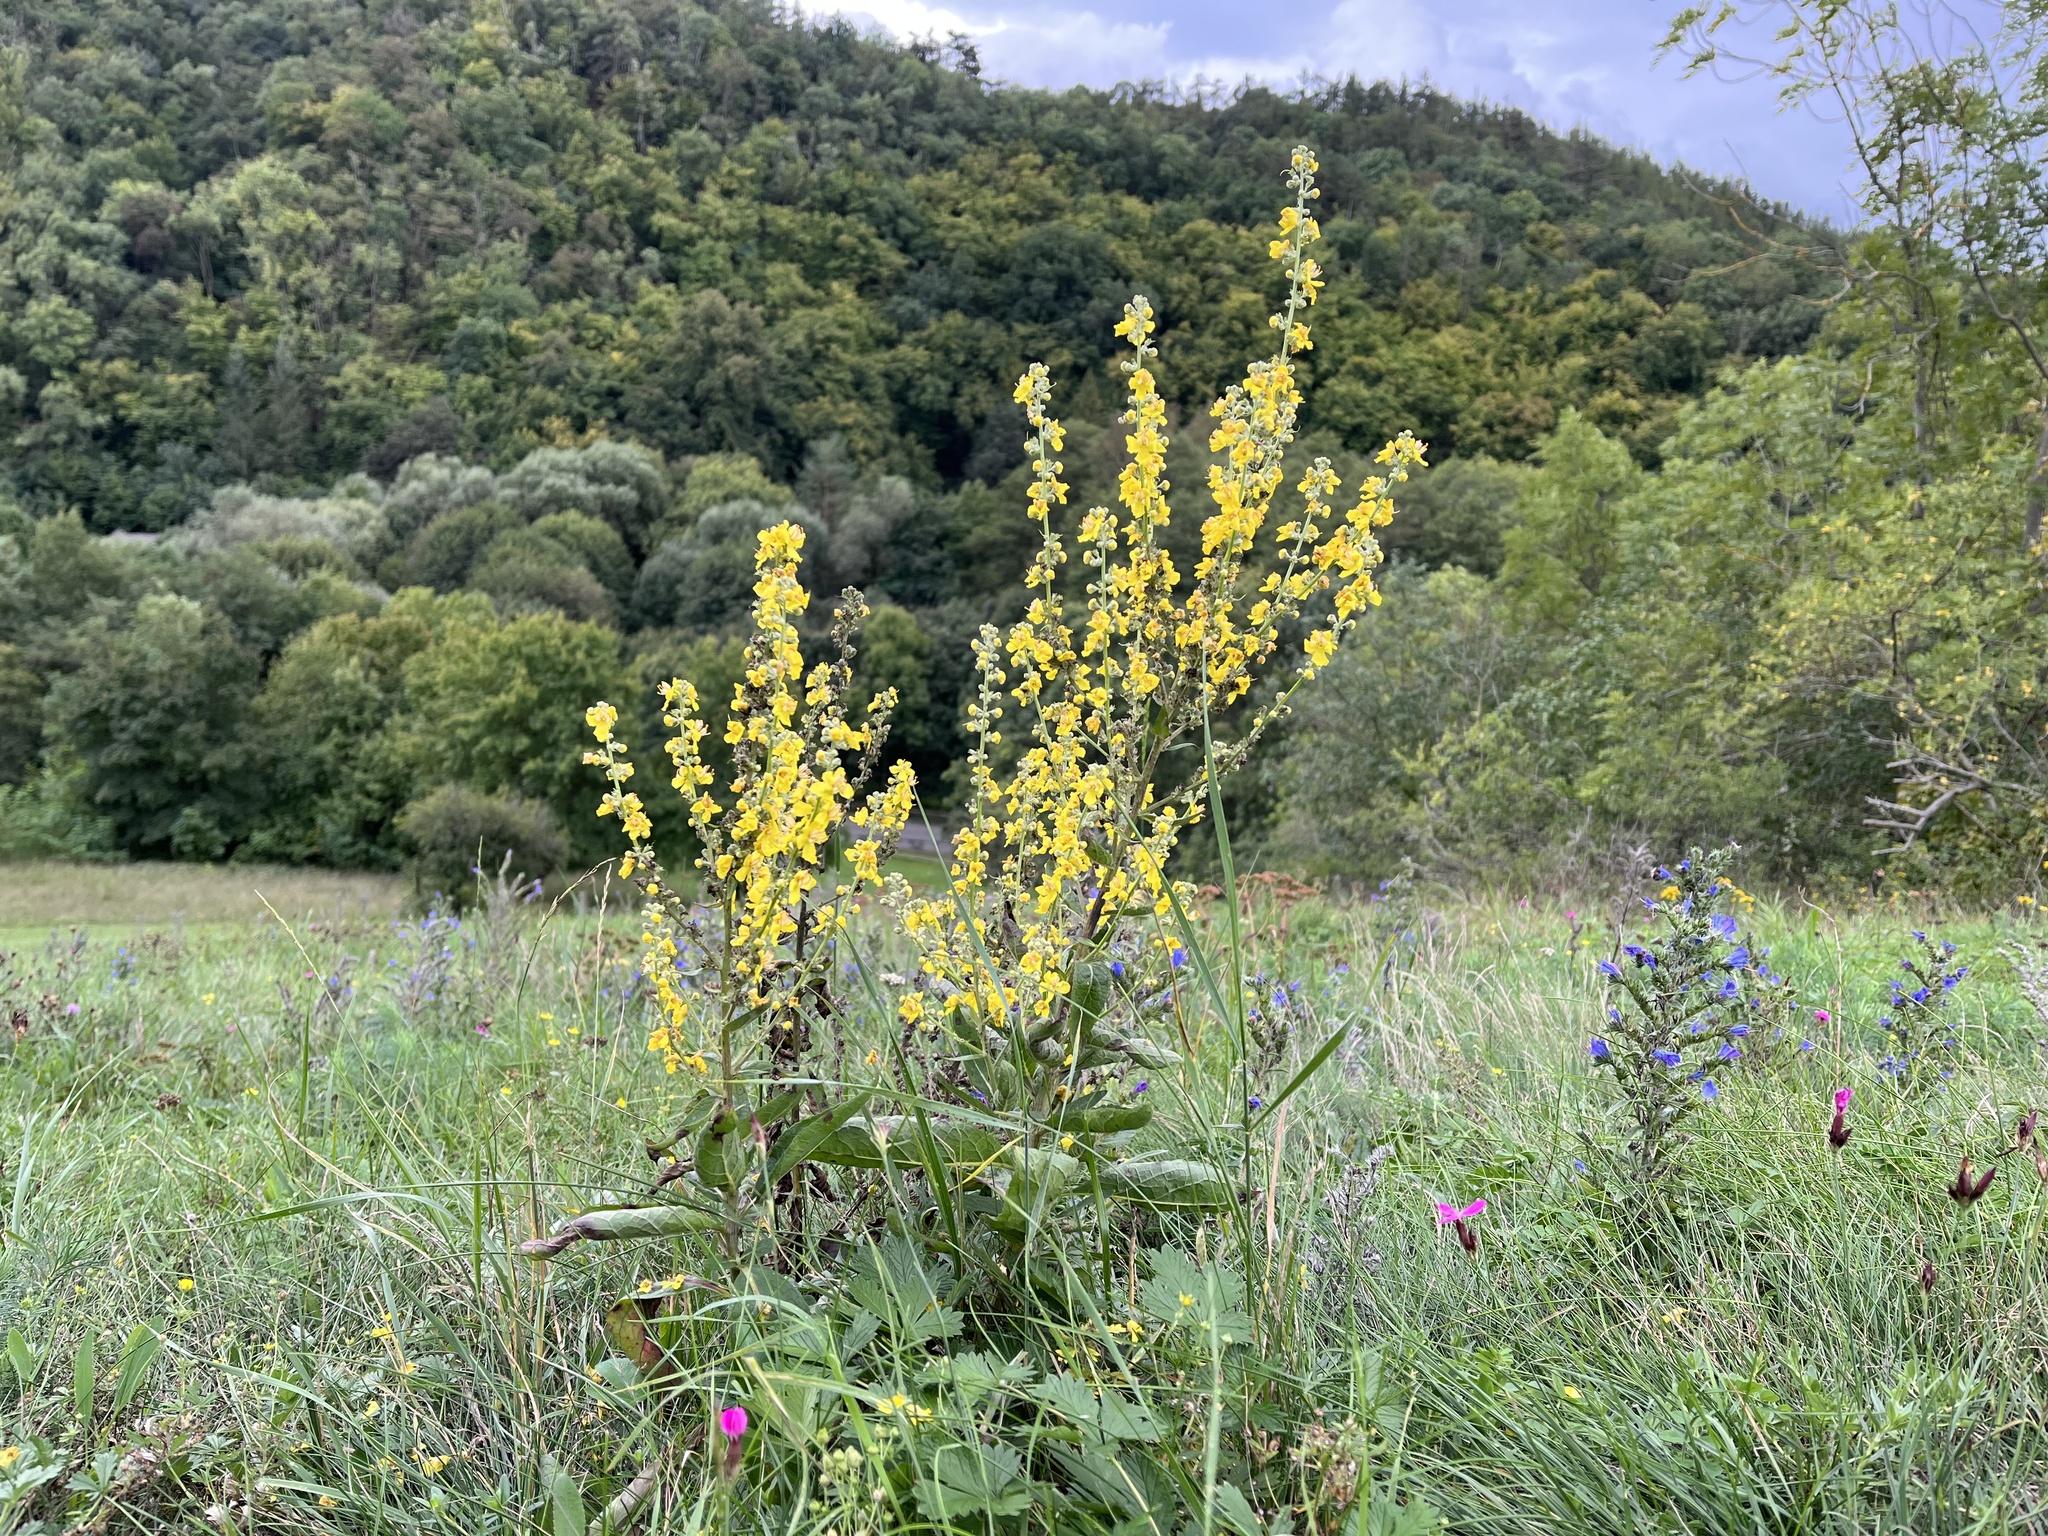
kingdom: Plantae
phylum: Tracheophyta
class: Magnoliopsida
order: Lamiales
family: Scrophulariaceae
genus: Verbascum
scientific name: Verbascum lychnitis
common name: White mullein
